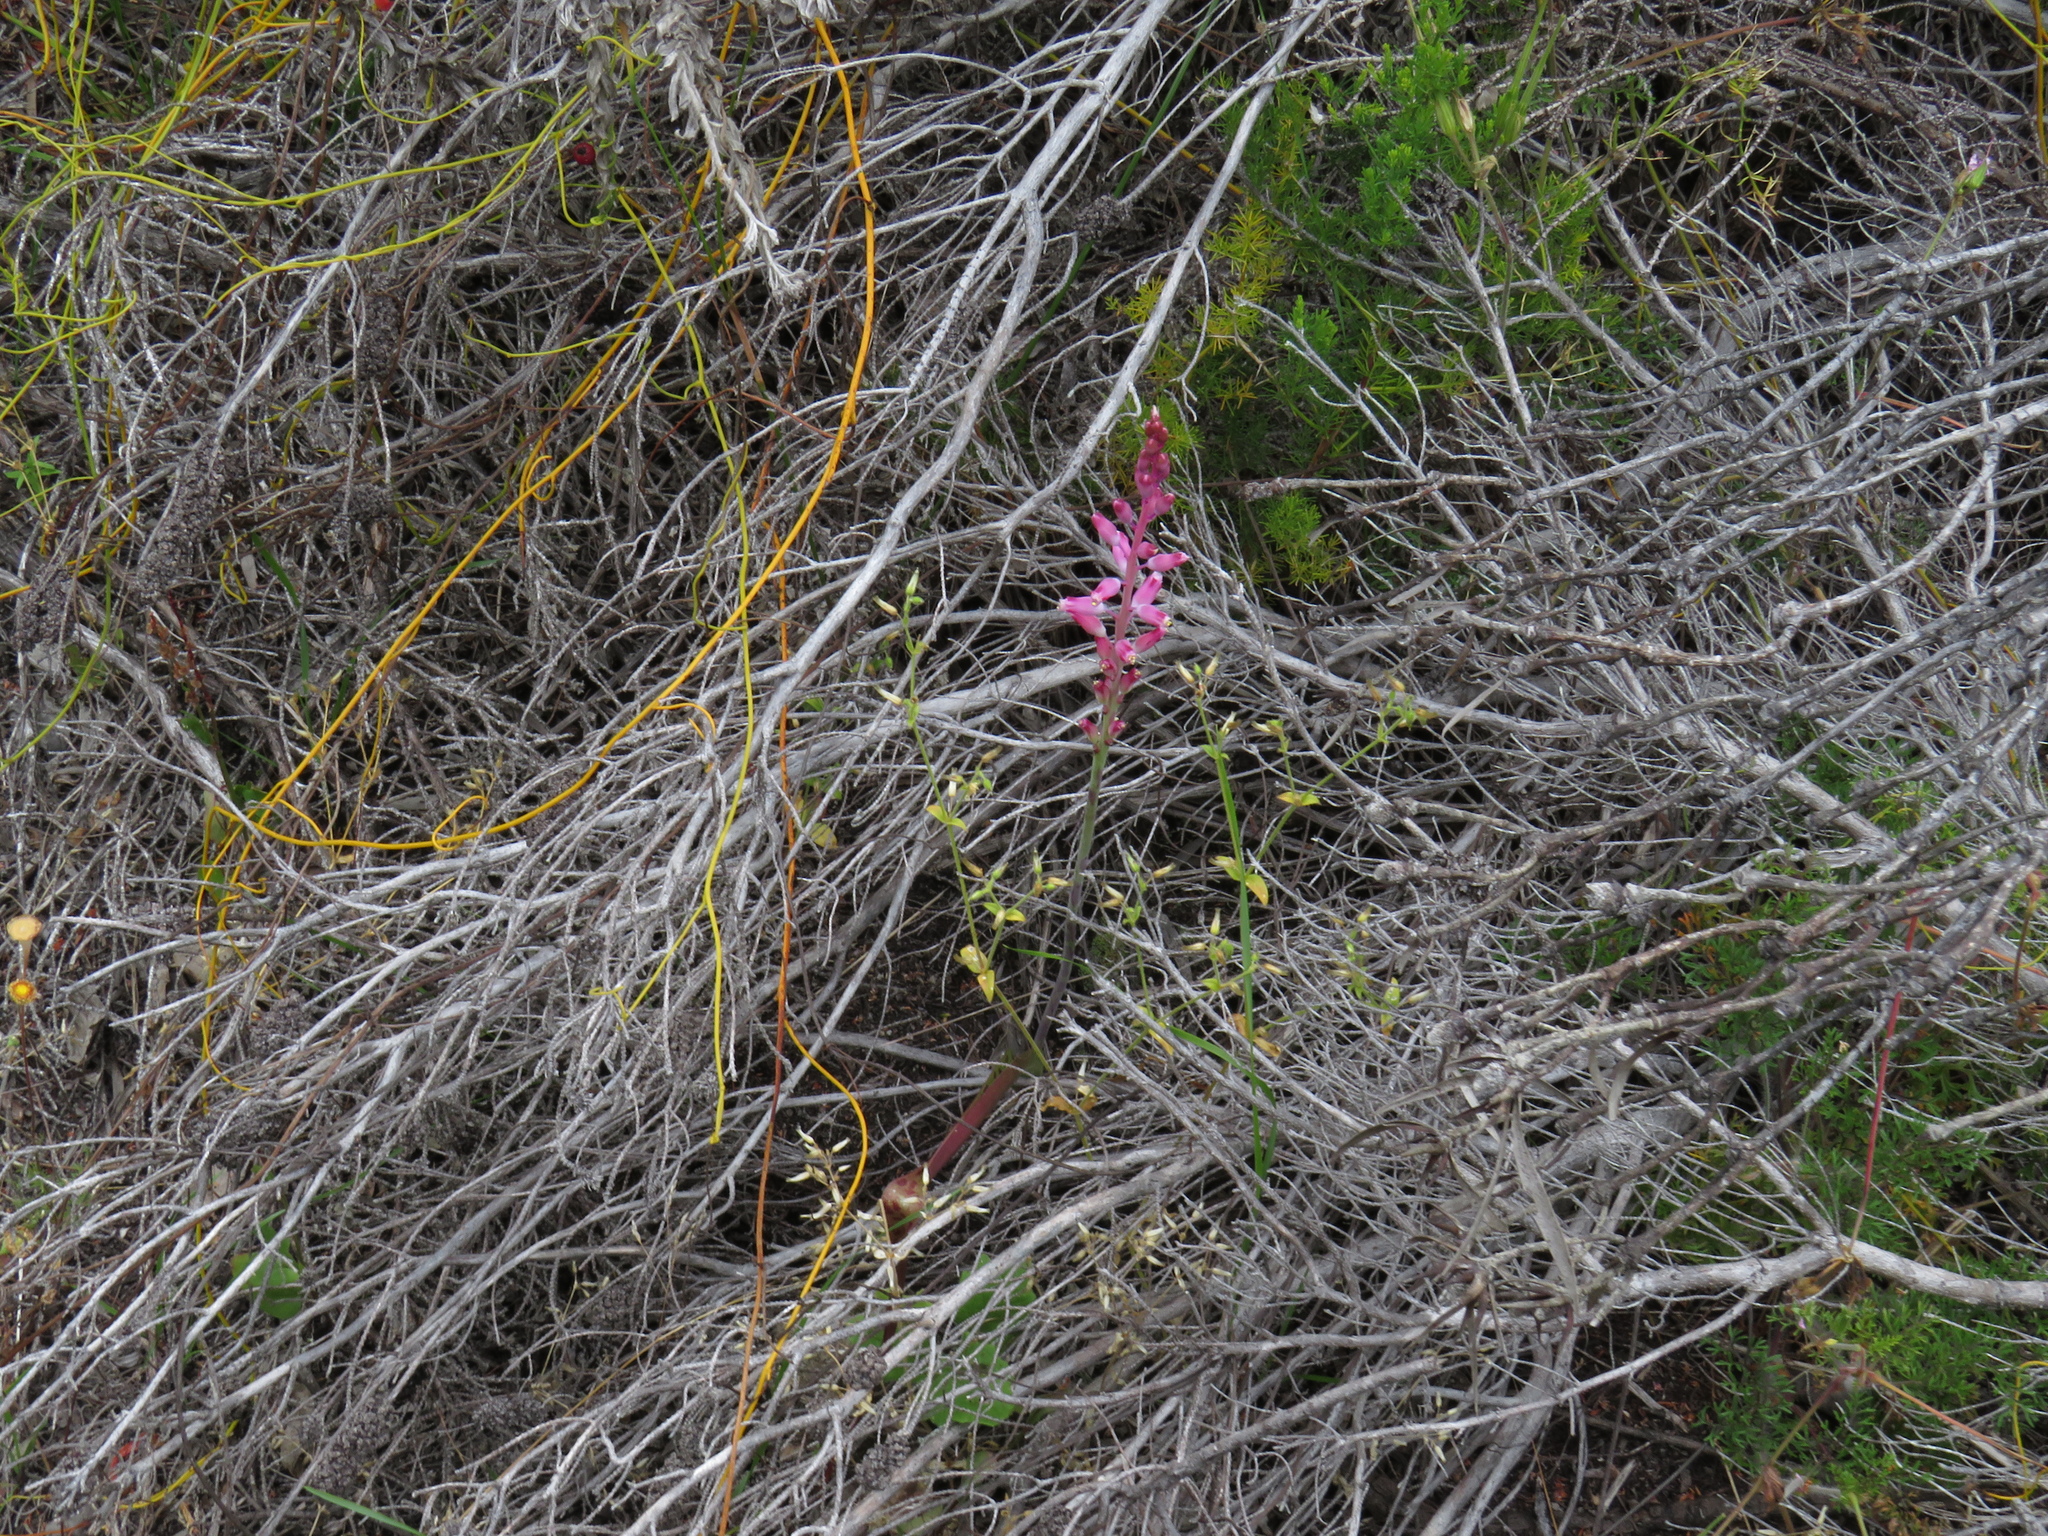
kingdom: Plantae
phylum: Tracheophyta
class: Liliopsida
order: Asparagales
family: Asparagaceae
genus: Lachenalia
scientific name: Lachenalia rosea
